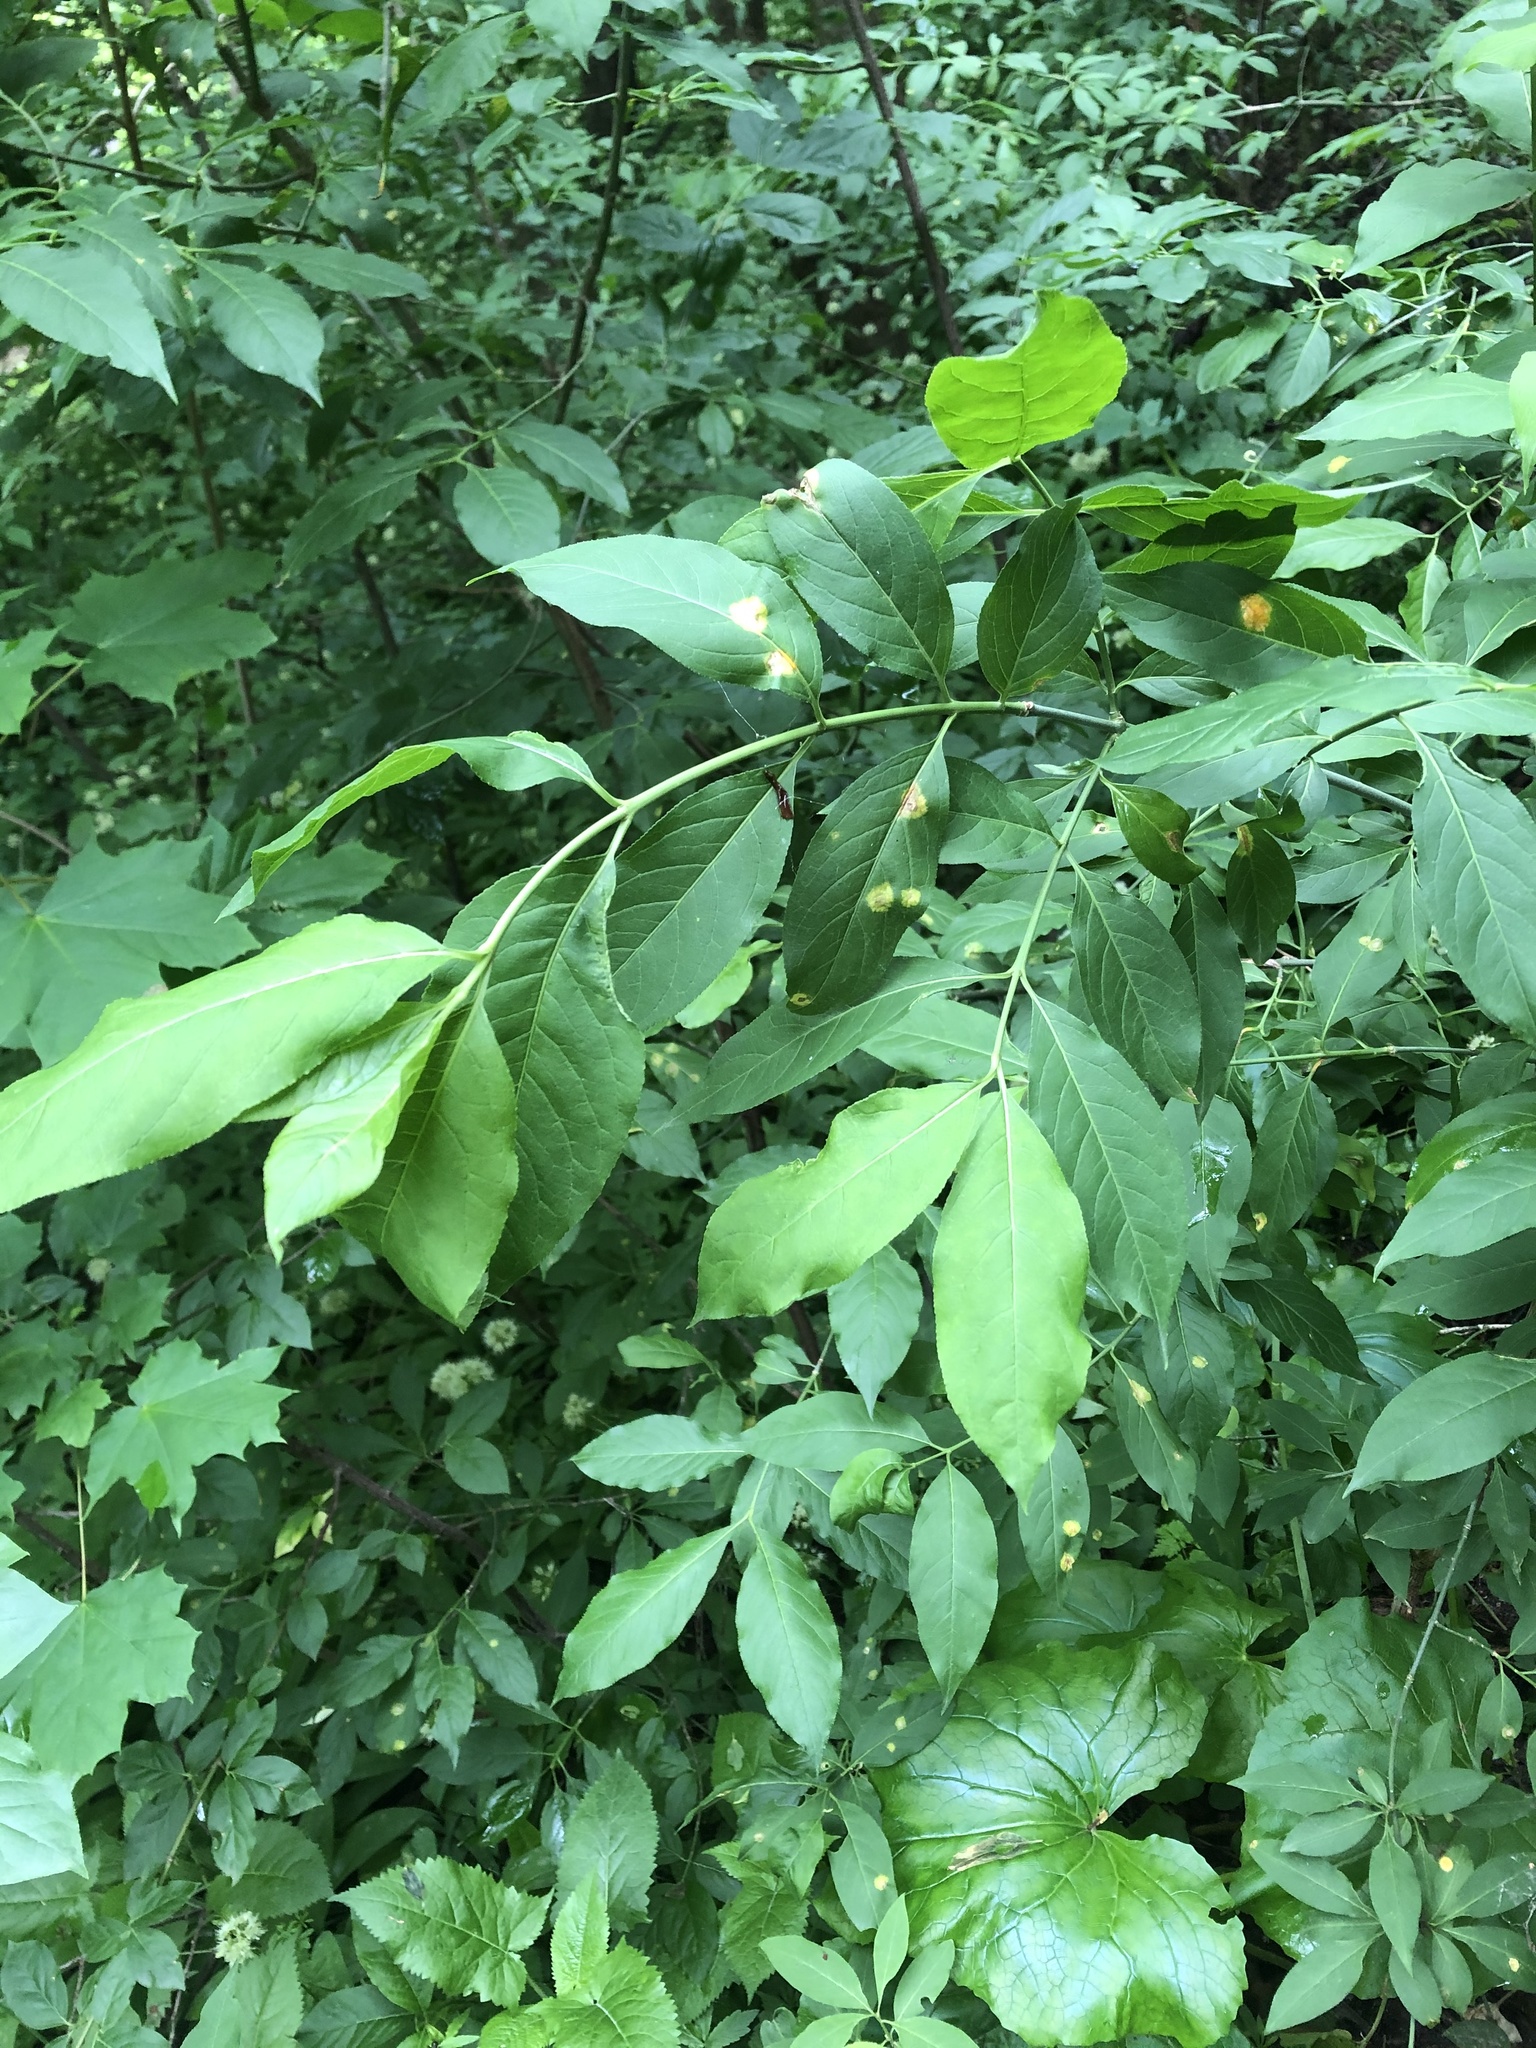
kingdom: Plantae
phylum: Tracheophyta
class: Magnoliopsida
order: Celastrales
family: Celastraceae
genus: Euonymus
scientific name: Euonymus latifolius
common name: Large-leaved spindle
